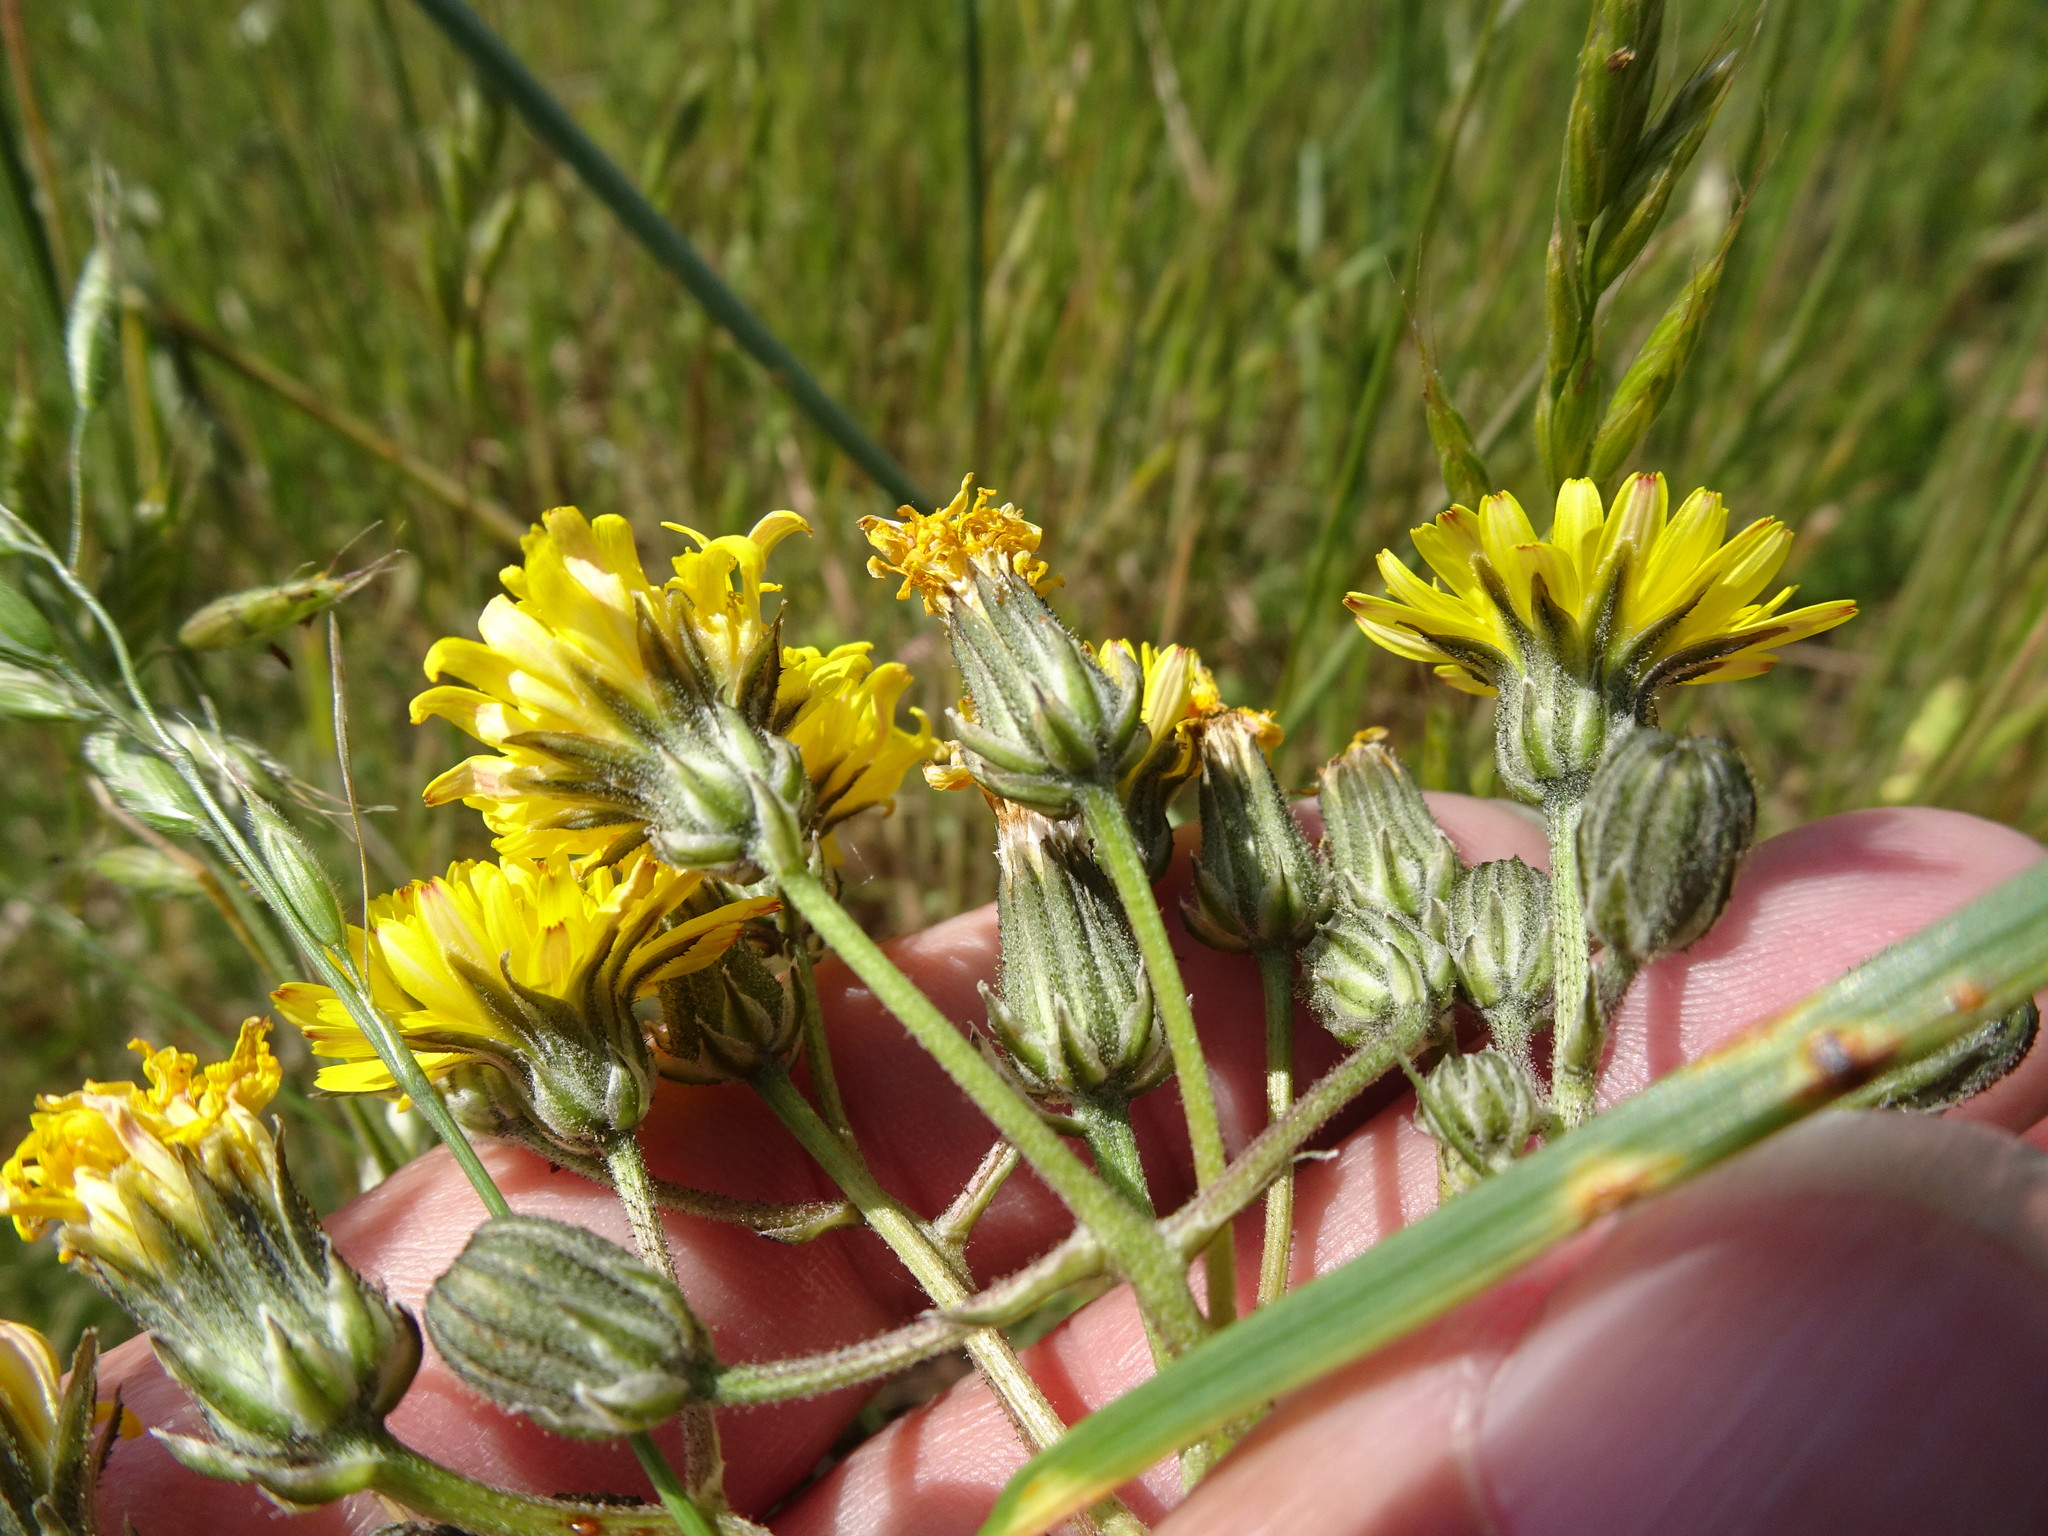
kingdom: Plantae
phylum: Tracheophyta
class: Magnoliopsida
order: Asterales
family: Asteraceae
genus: Crepis
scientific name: Crepis vesicaria
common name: Beaked hawksbeard
